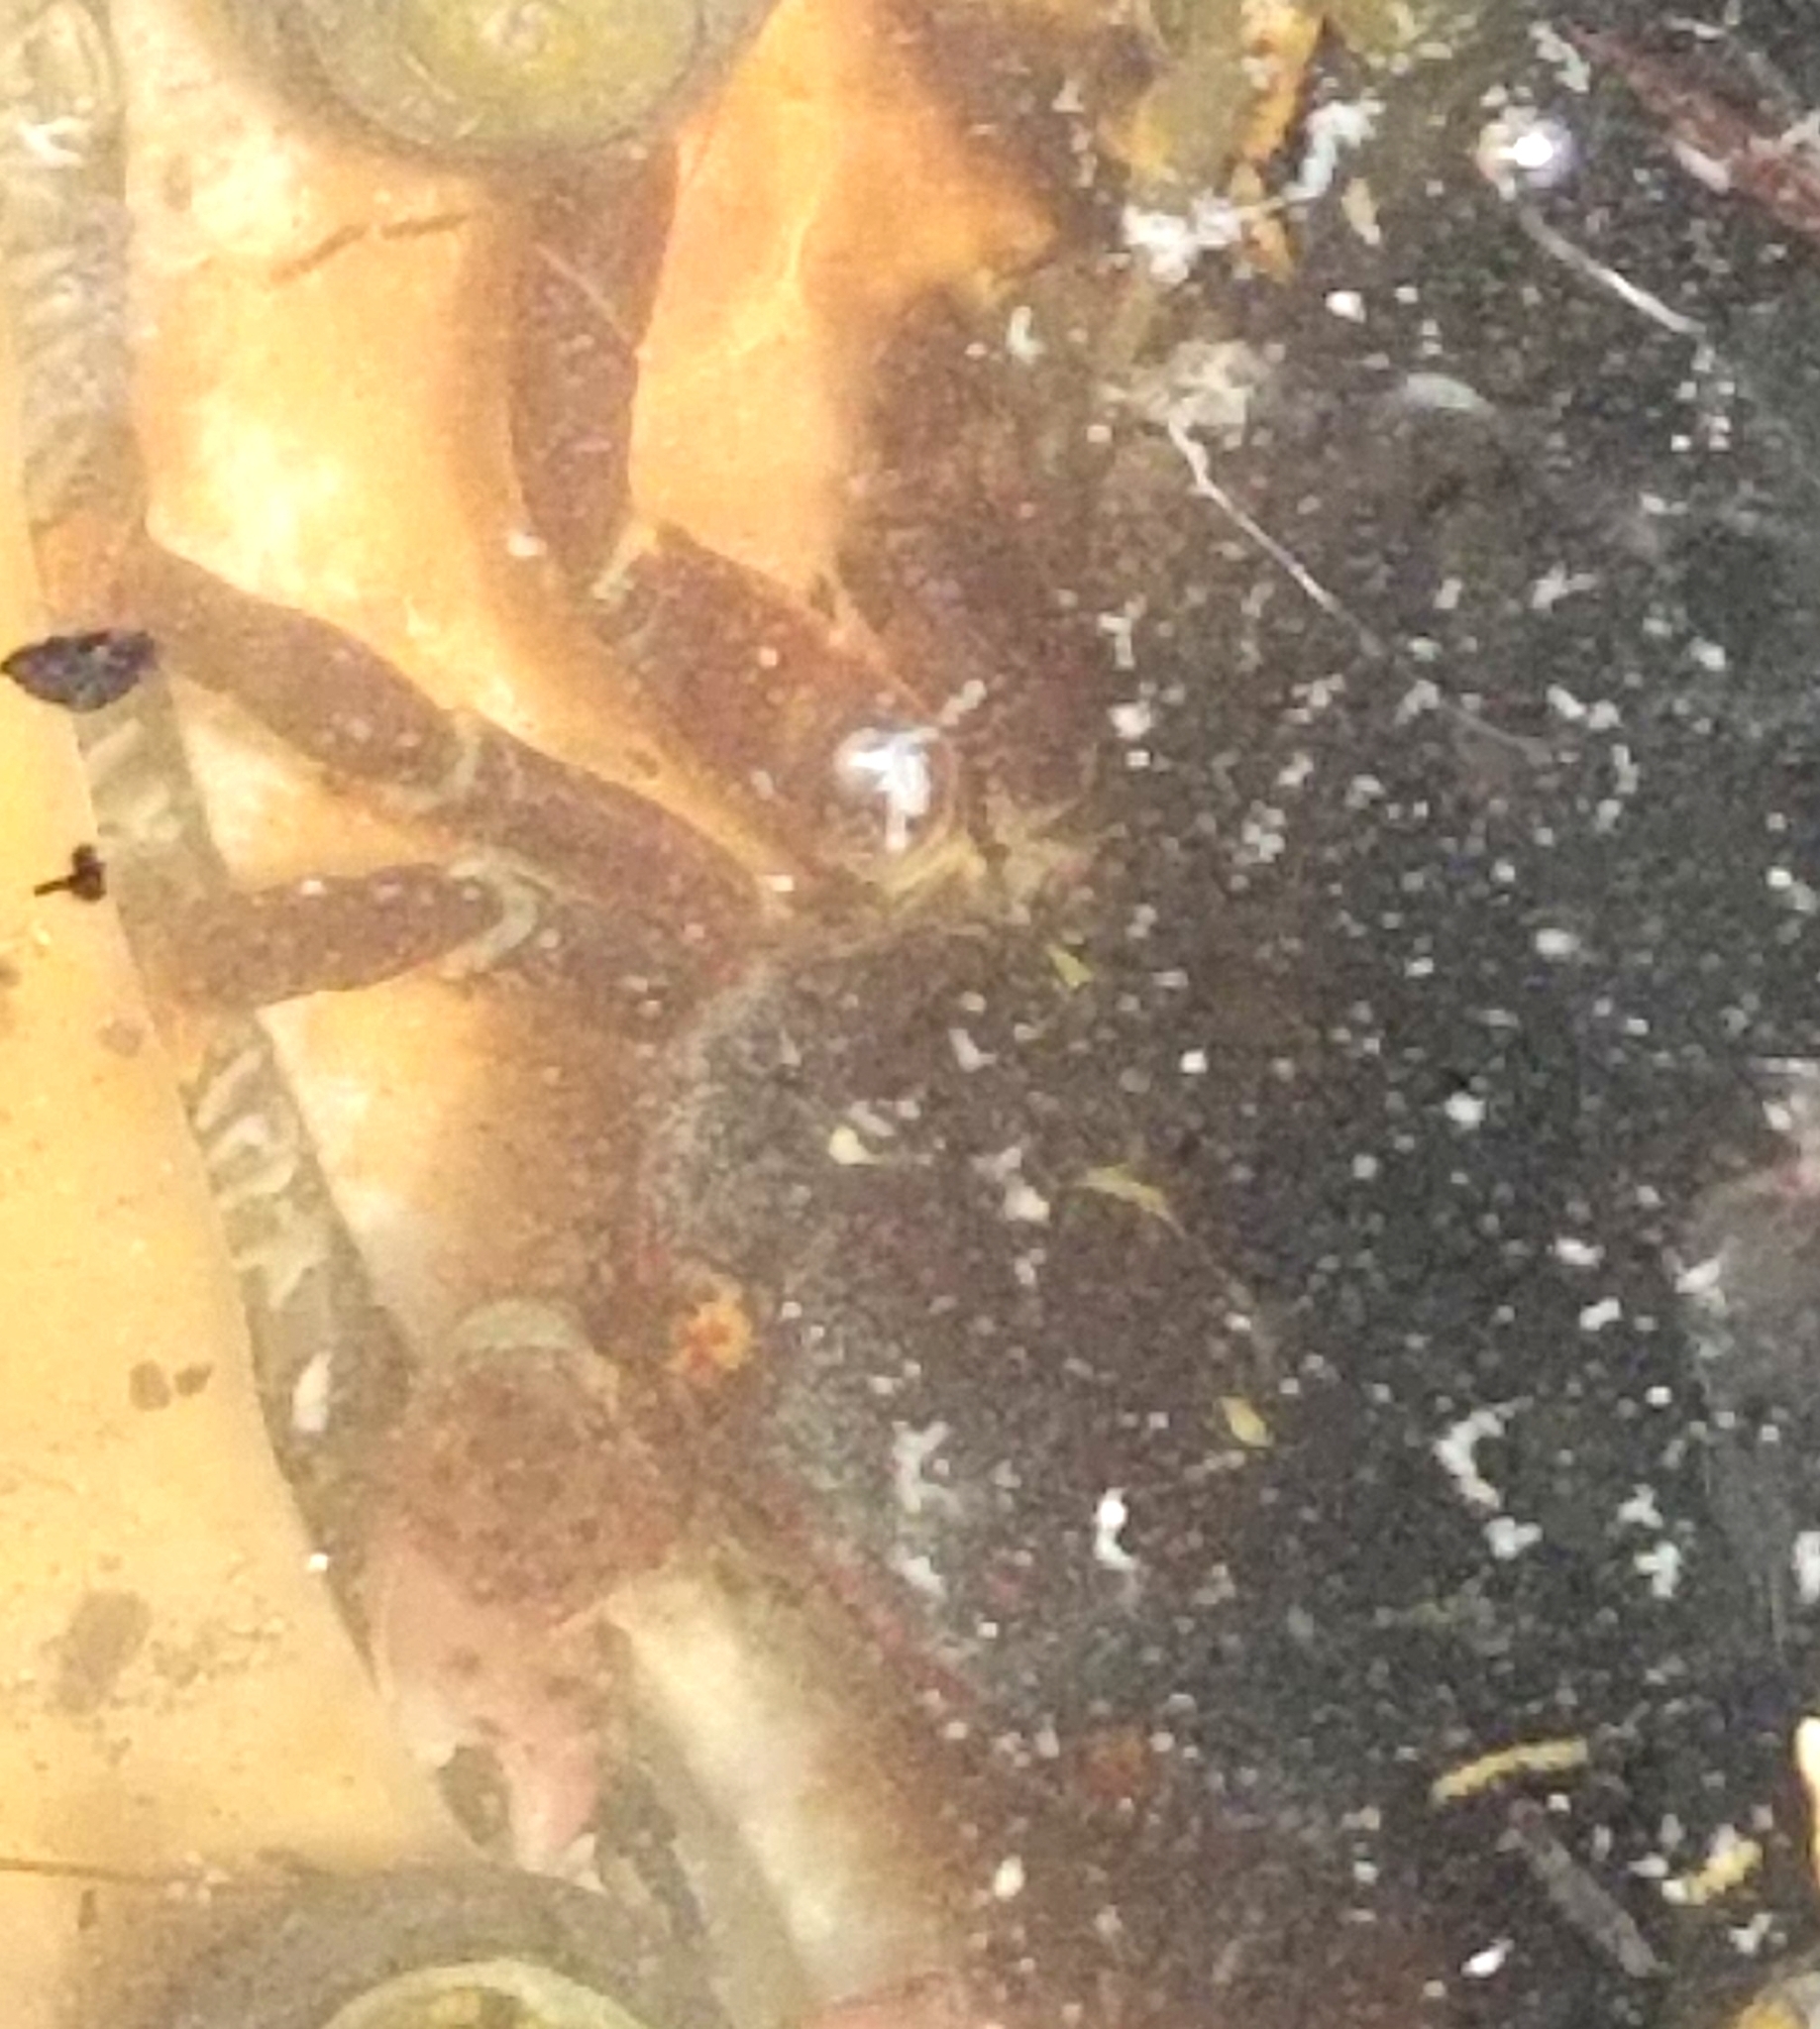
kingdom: Animalia
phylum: Arthropoda
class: Malacostraca
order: Decapoda
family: Varunidae
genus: Hemigrapsus
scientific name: Hemigrapsus nudus
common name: Purple shore crab
